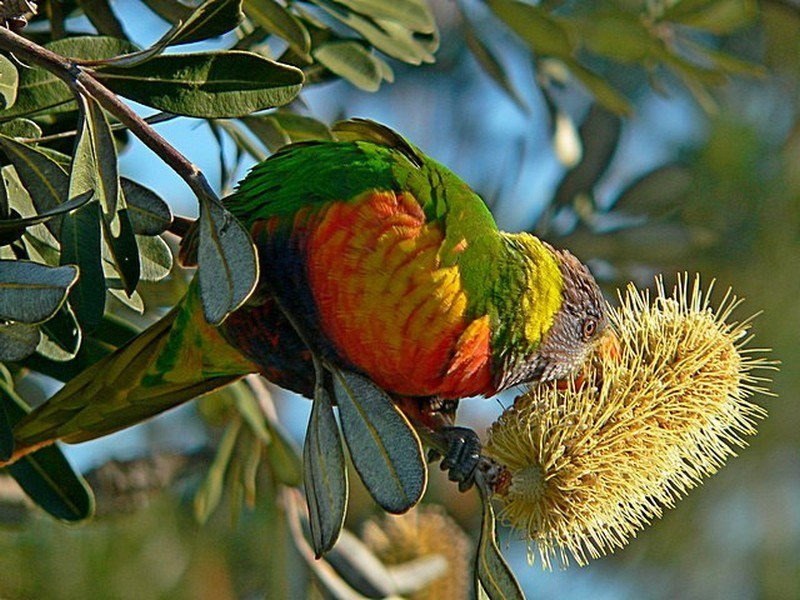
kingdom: Animalia
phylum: Chordata
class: Aves
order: Psittaciformes
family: Psittacidae
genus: Trichoglossus
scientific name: Trichoglossus haematodus
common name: Coconut lorikeet
